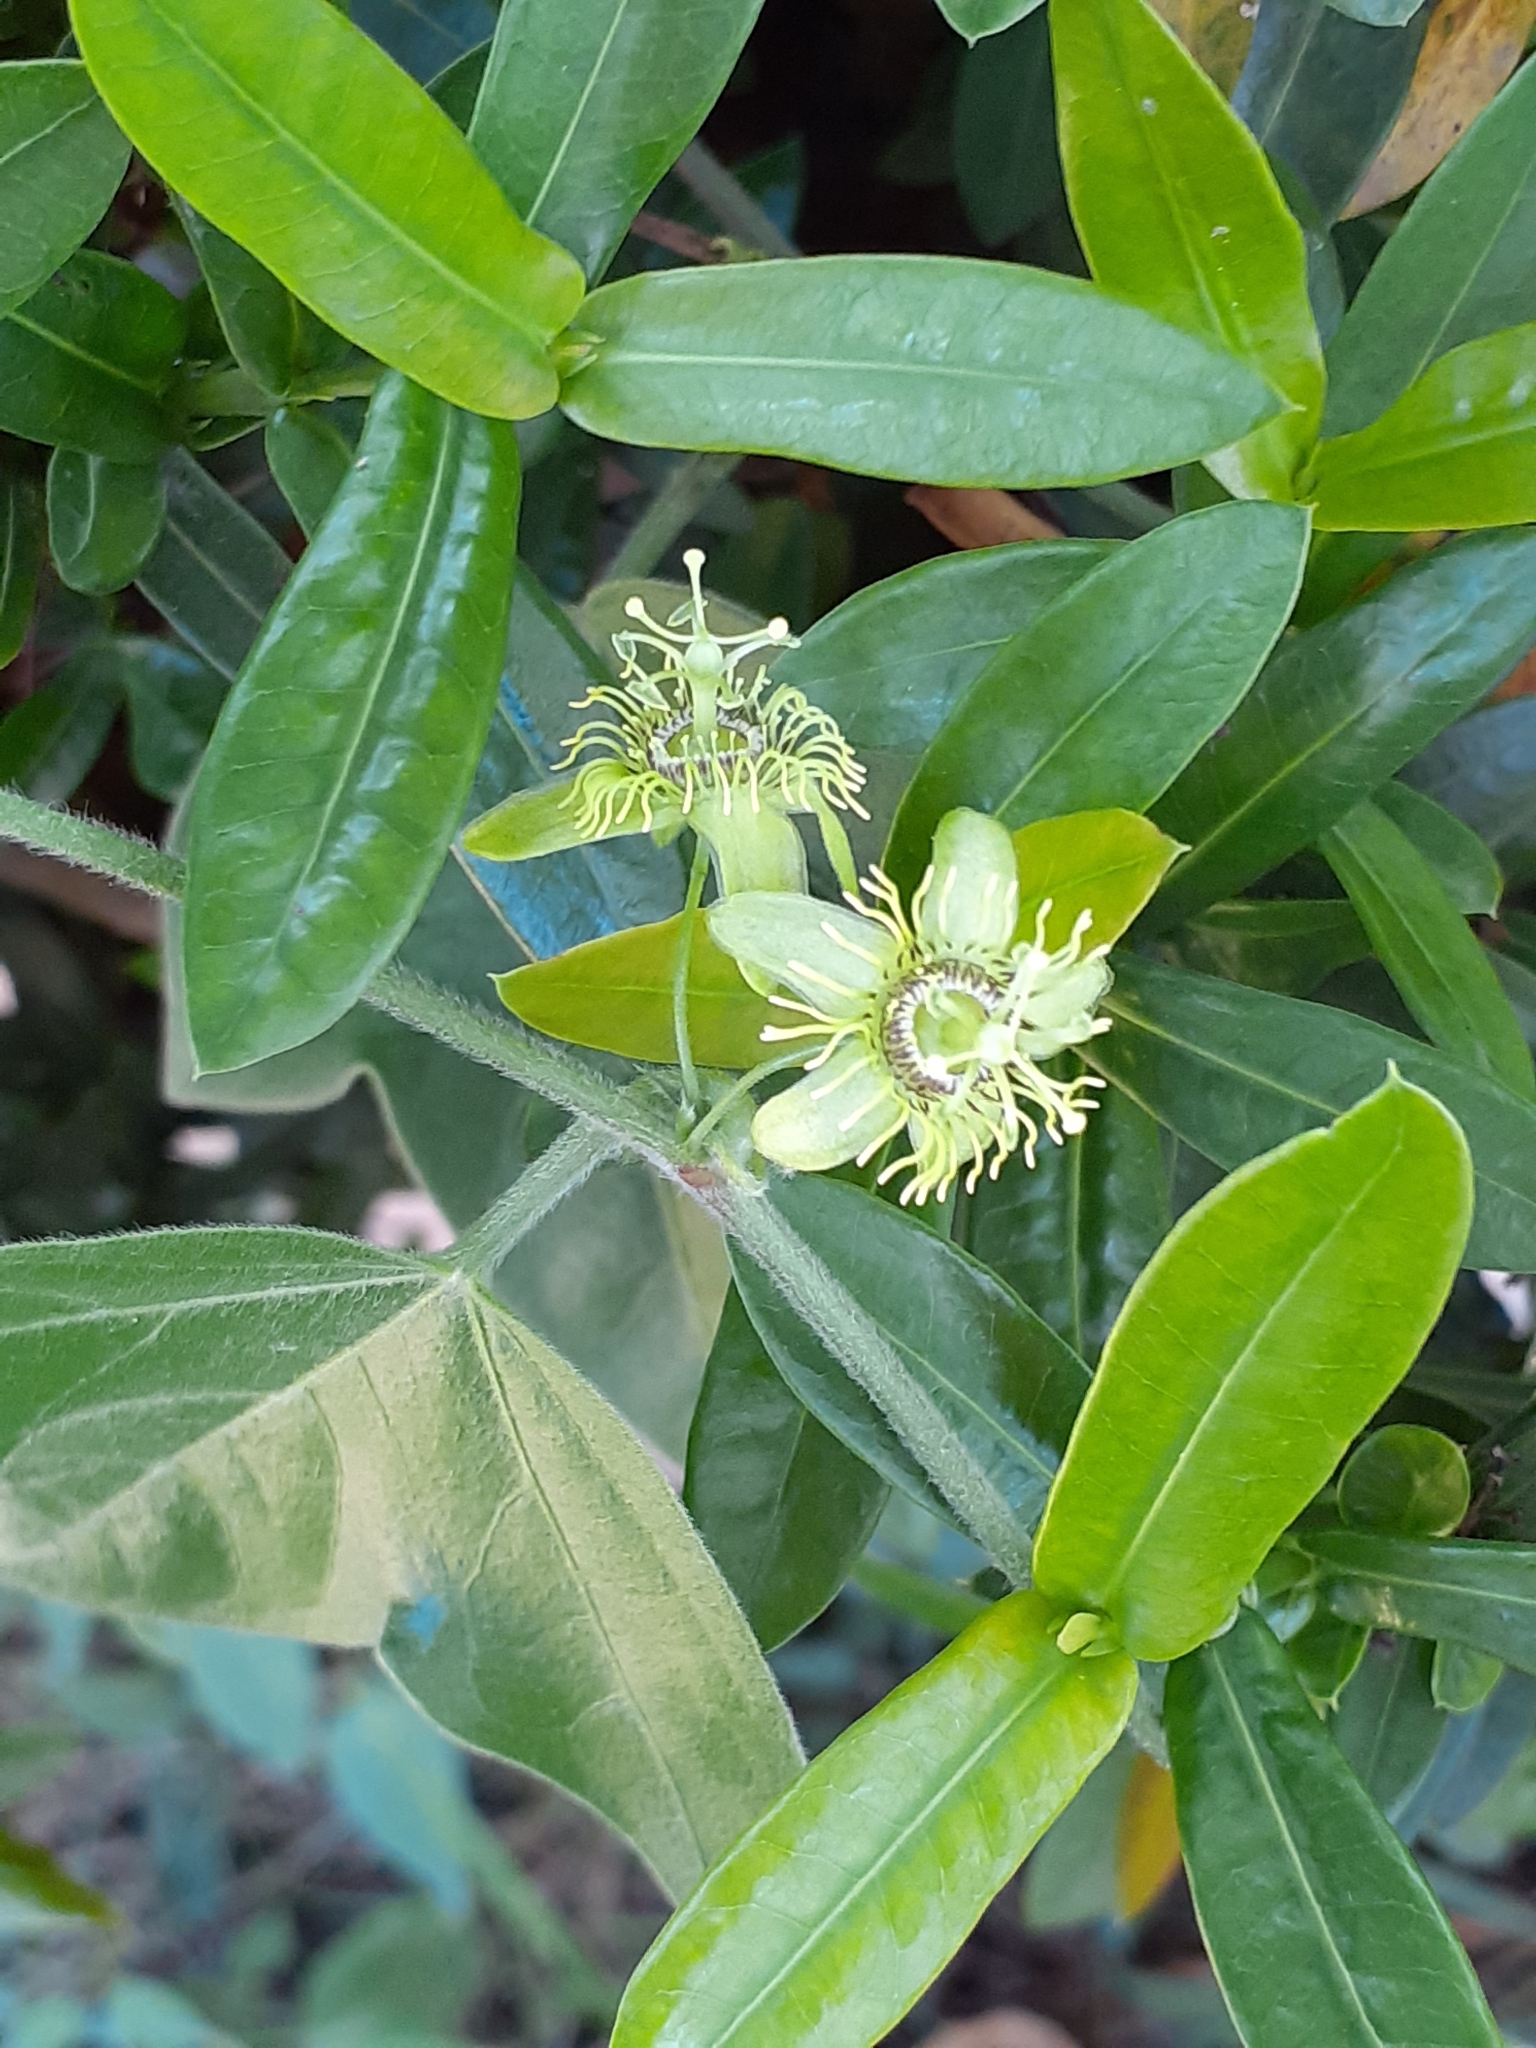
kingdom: Plantae
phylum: Tracheophyta
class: Magnoliopsida
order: Malpighiales
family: Passifloraceae
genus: Passiflora
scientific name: Passiflora suberosa
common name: Wild passionfruit
